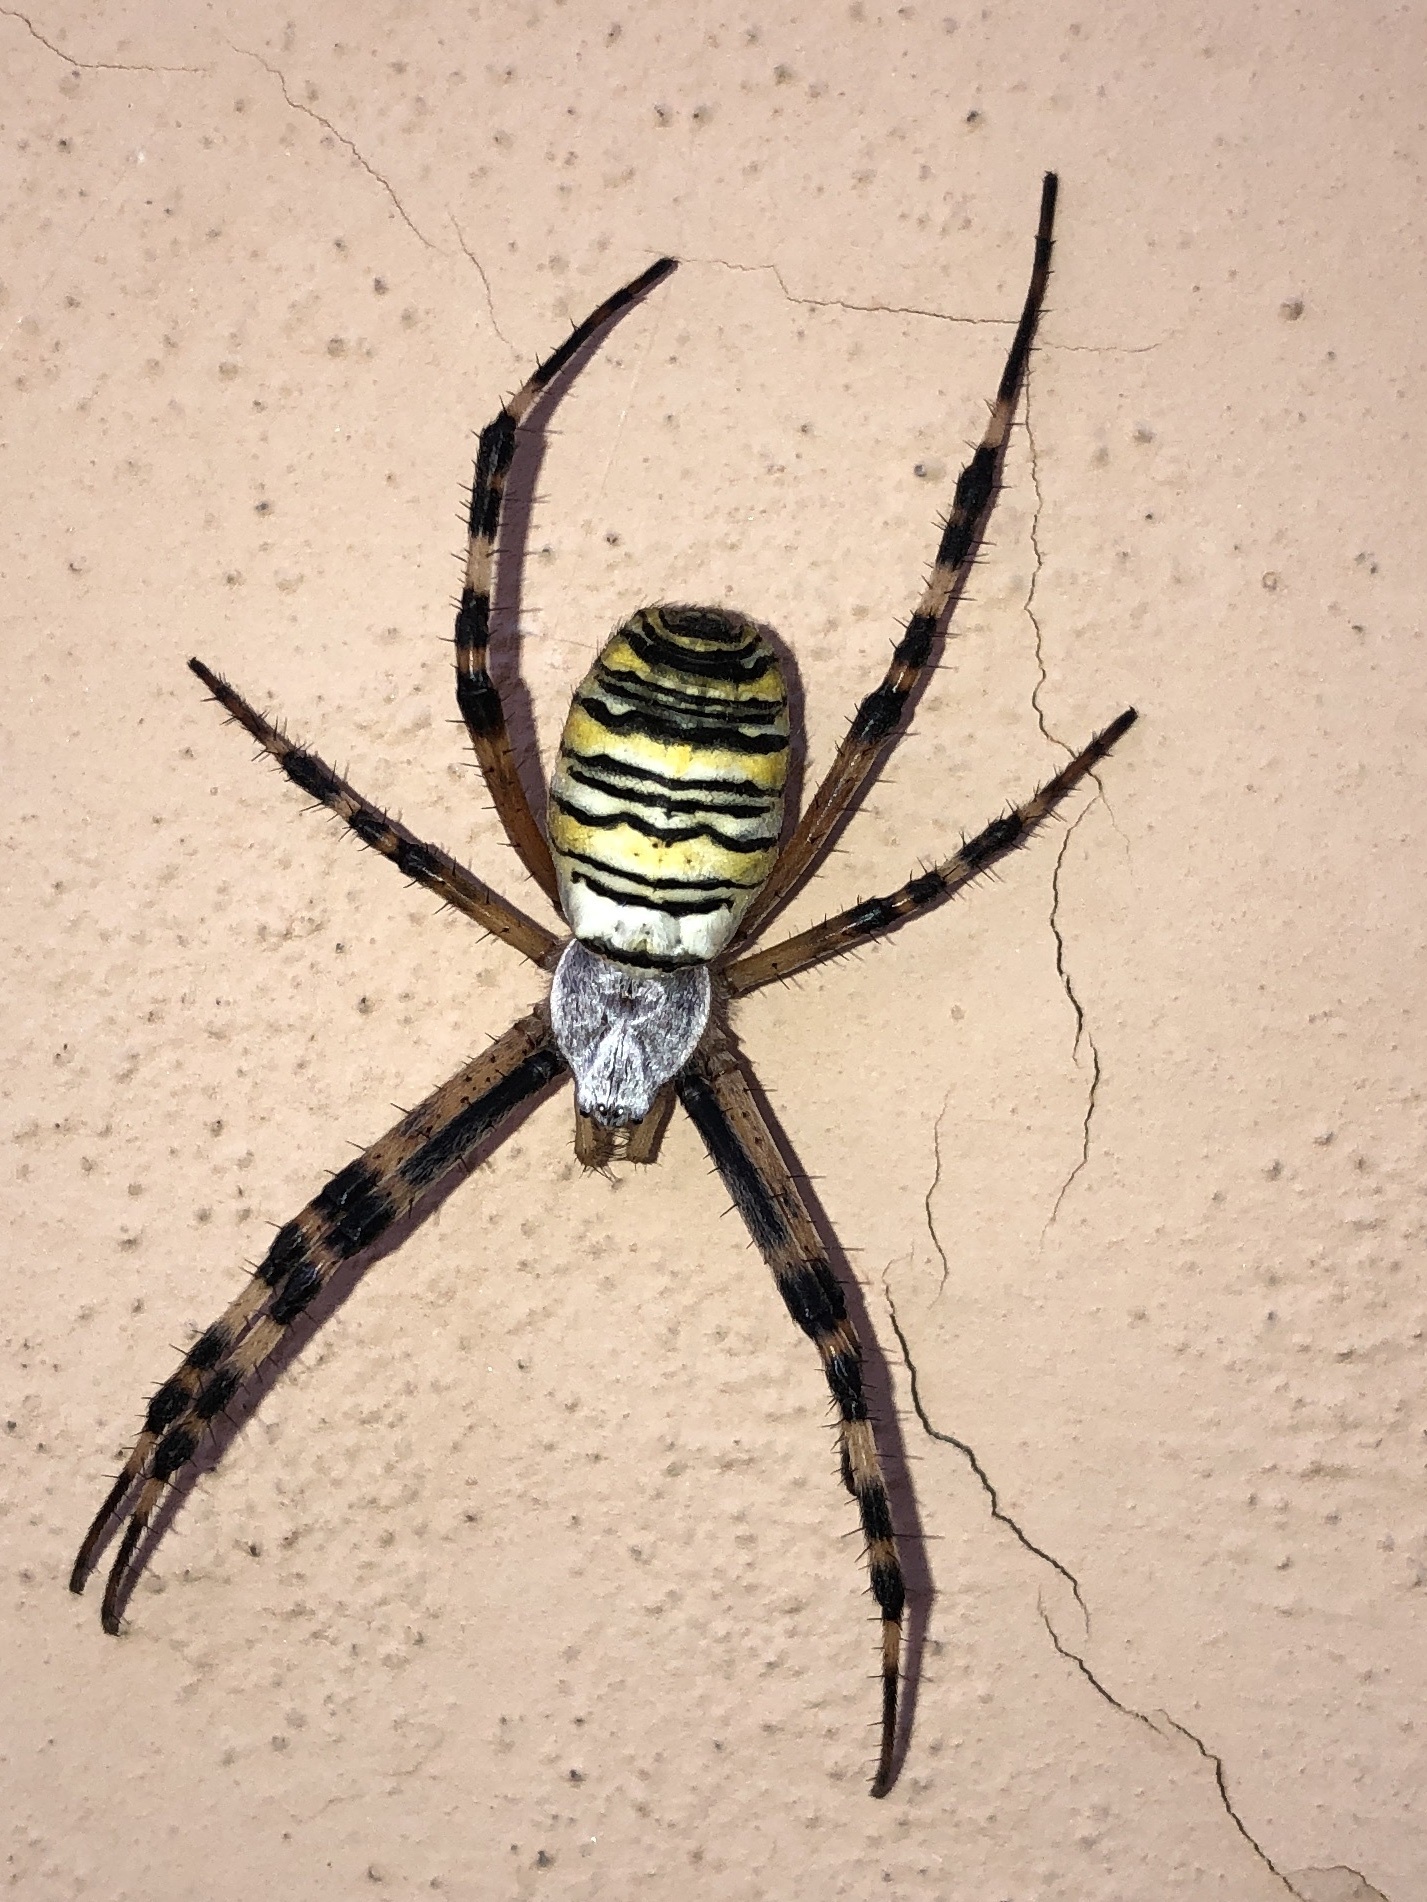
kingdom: Animalia
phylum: Arthropoda
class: Arachnida
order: Araneae
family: Araneidae
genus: Argiope
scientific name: Argiope bruennichi
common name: Wasp spider
